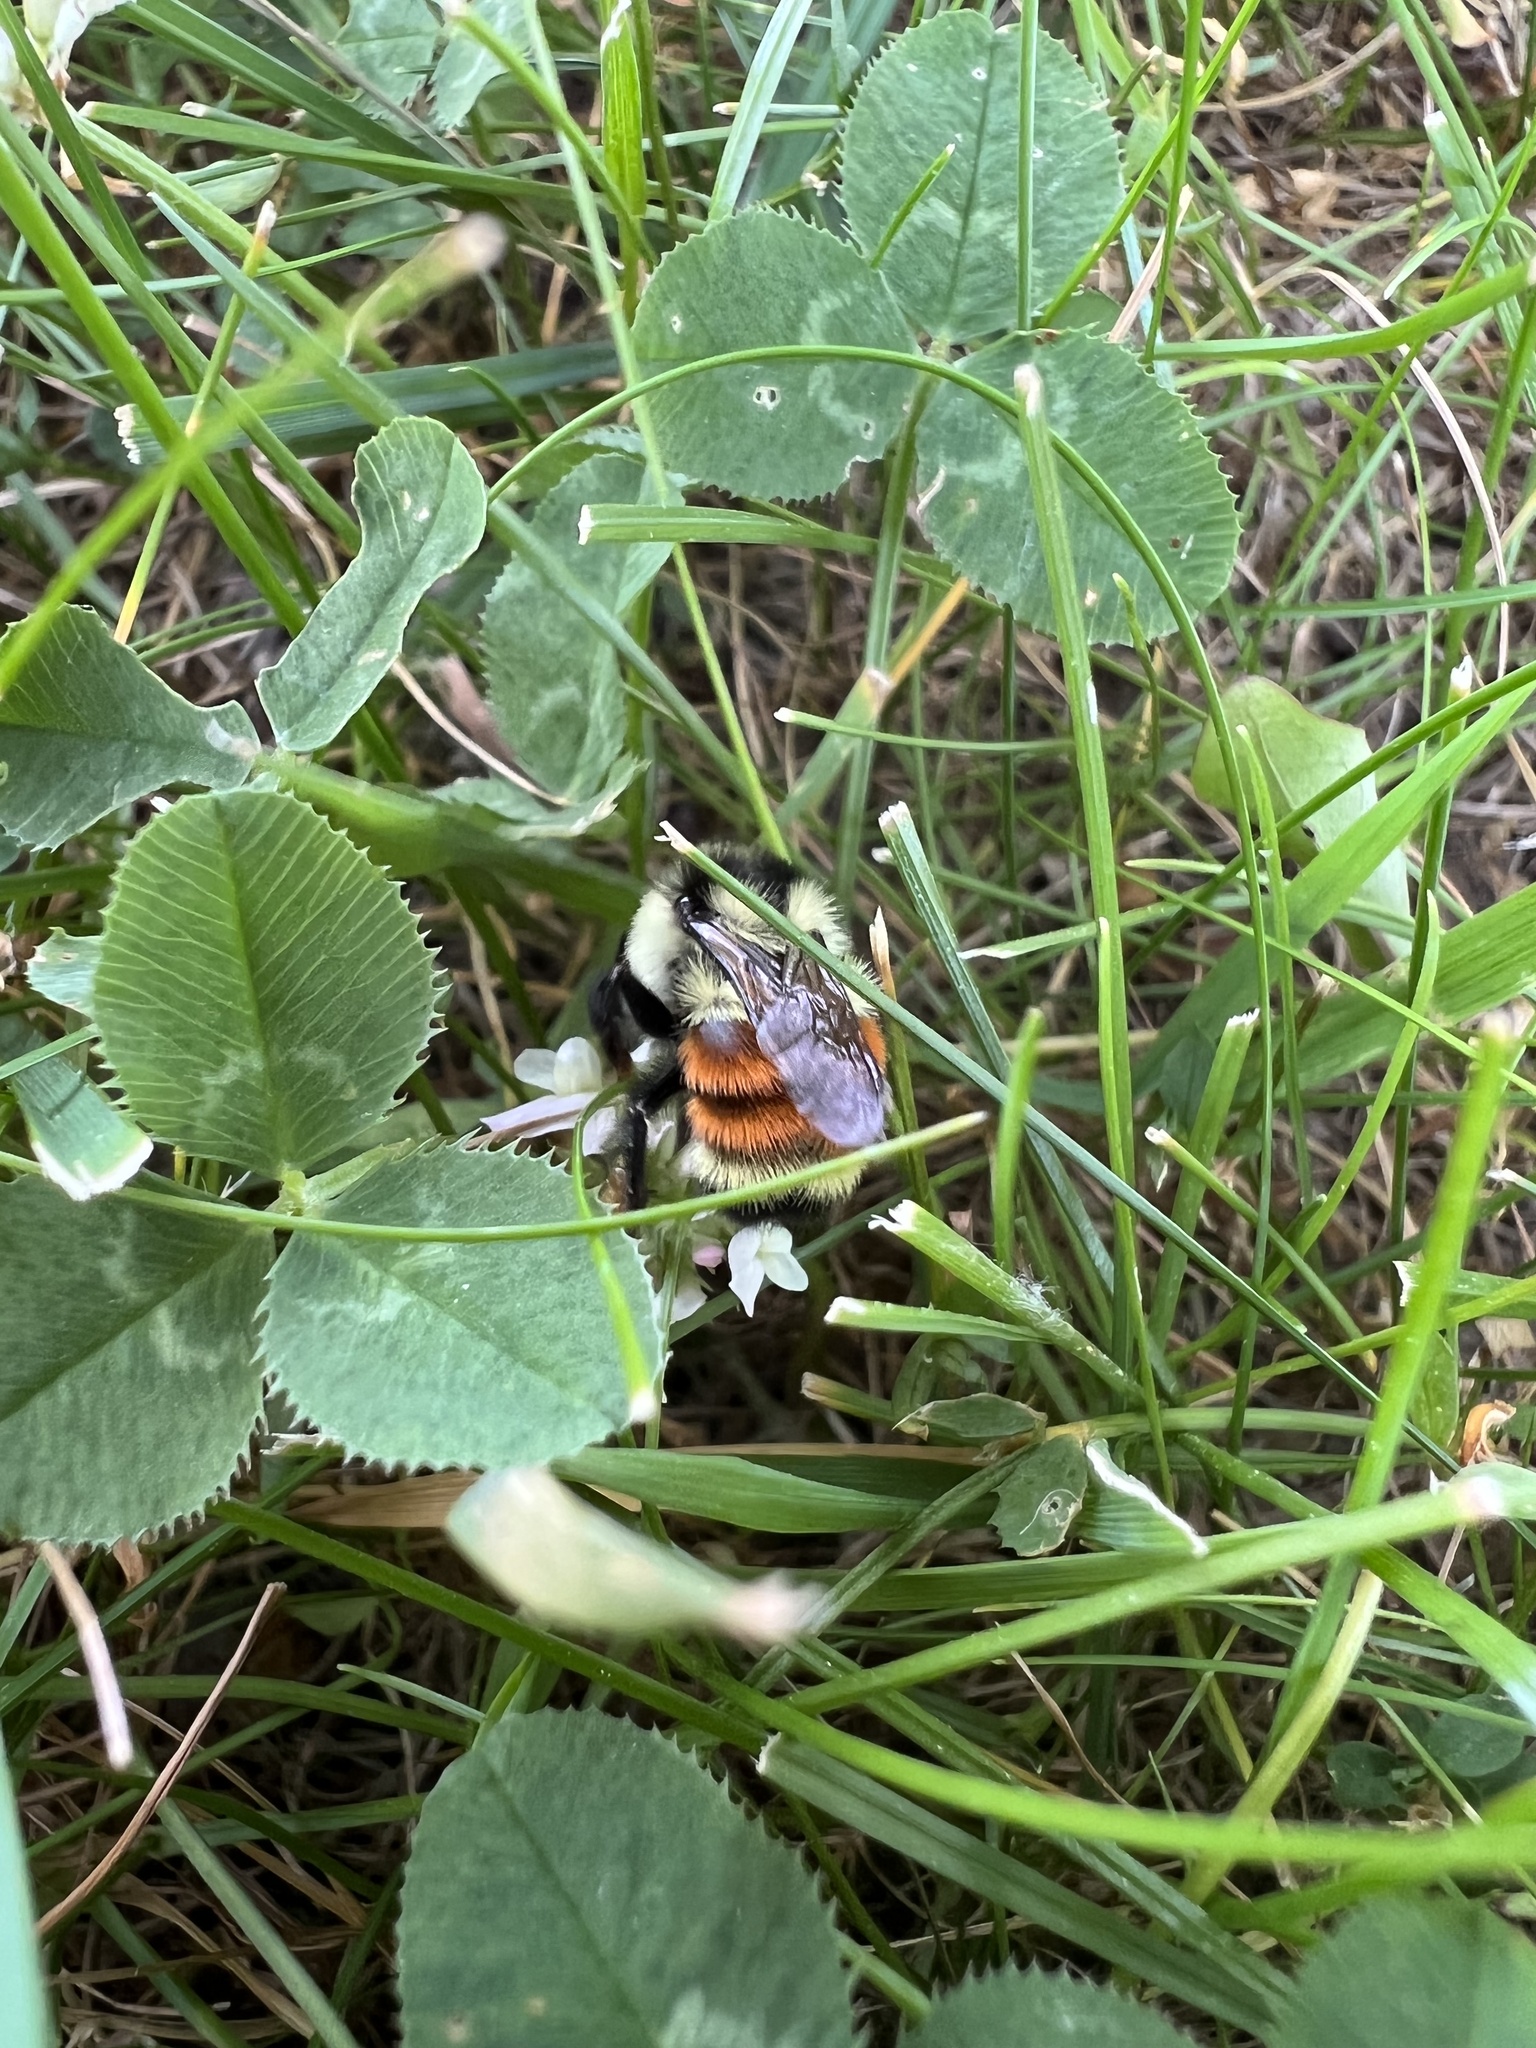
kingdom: Animalia
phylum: Arthropoda
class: Insecta
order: Hymenoptera
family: Apidae
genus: Bombus
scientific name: Bombus ternarius
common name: Tri-colored bumble bee
